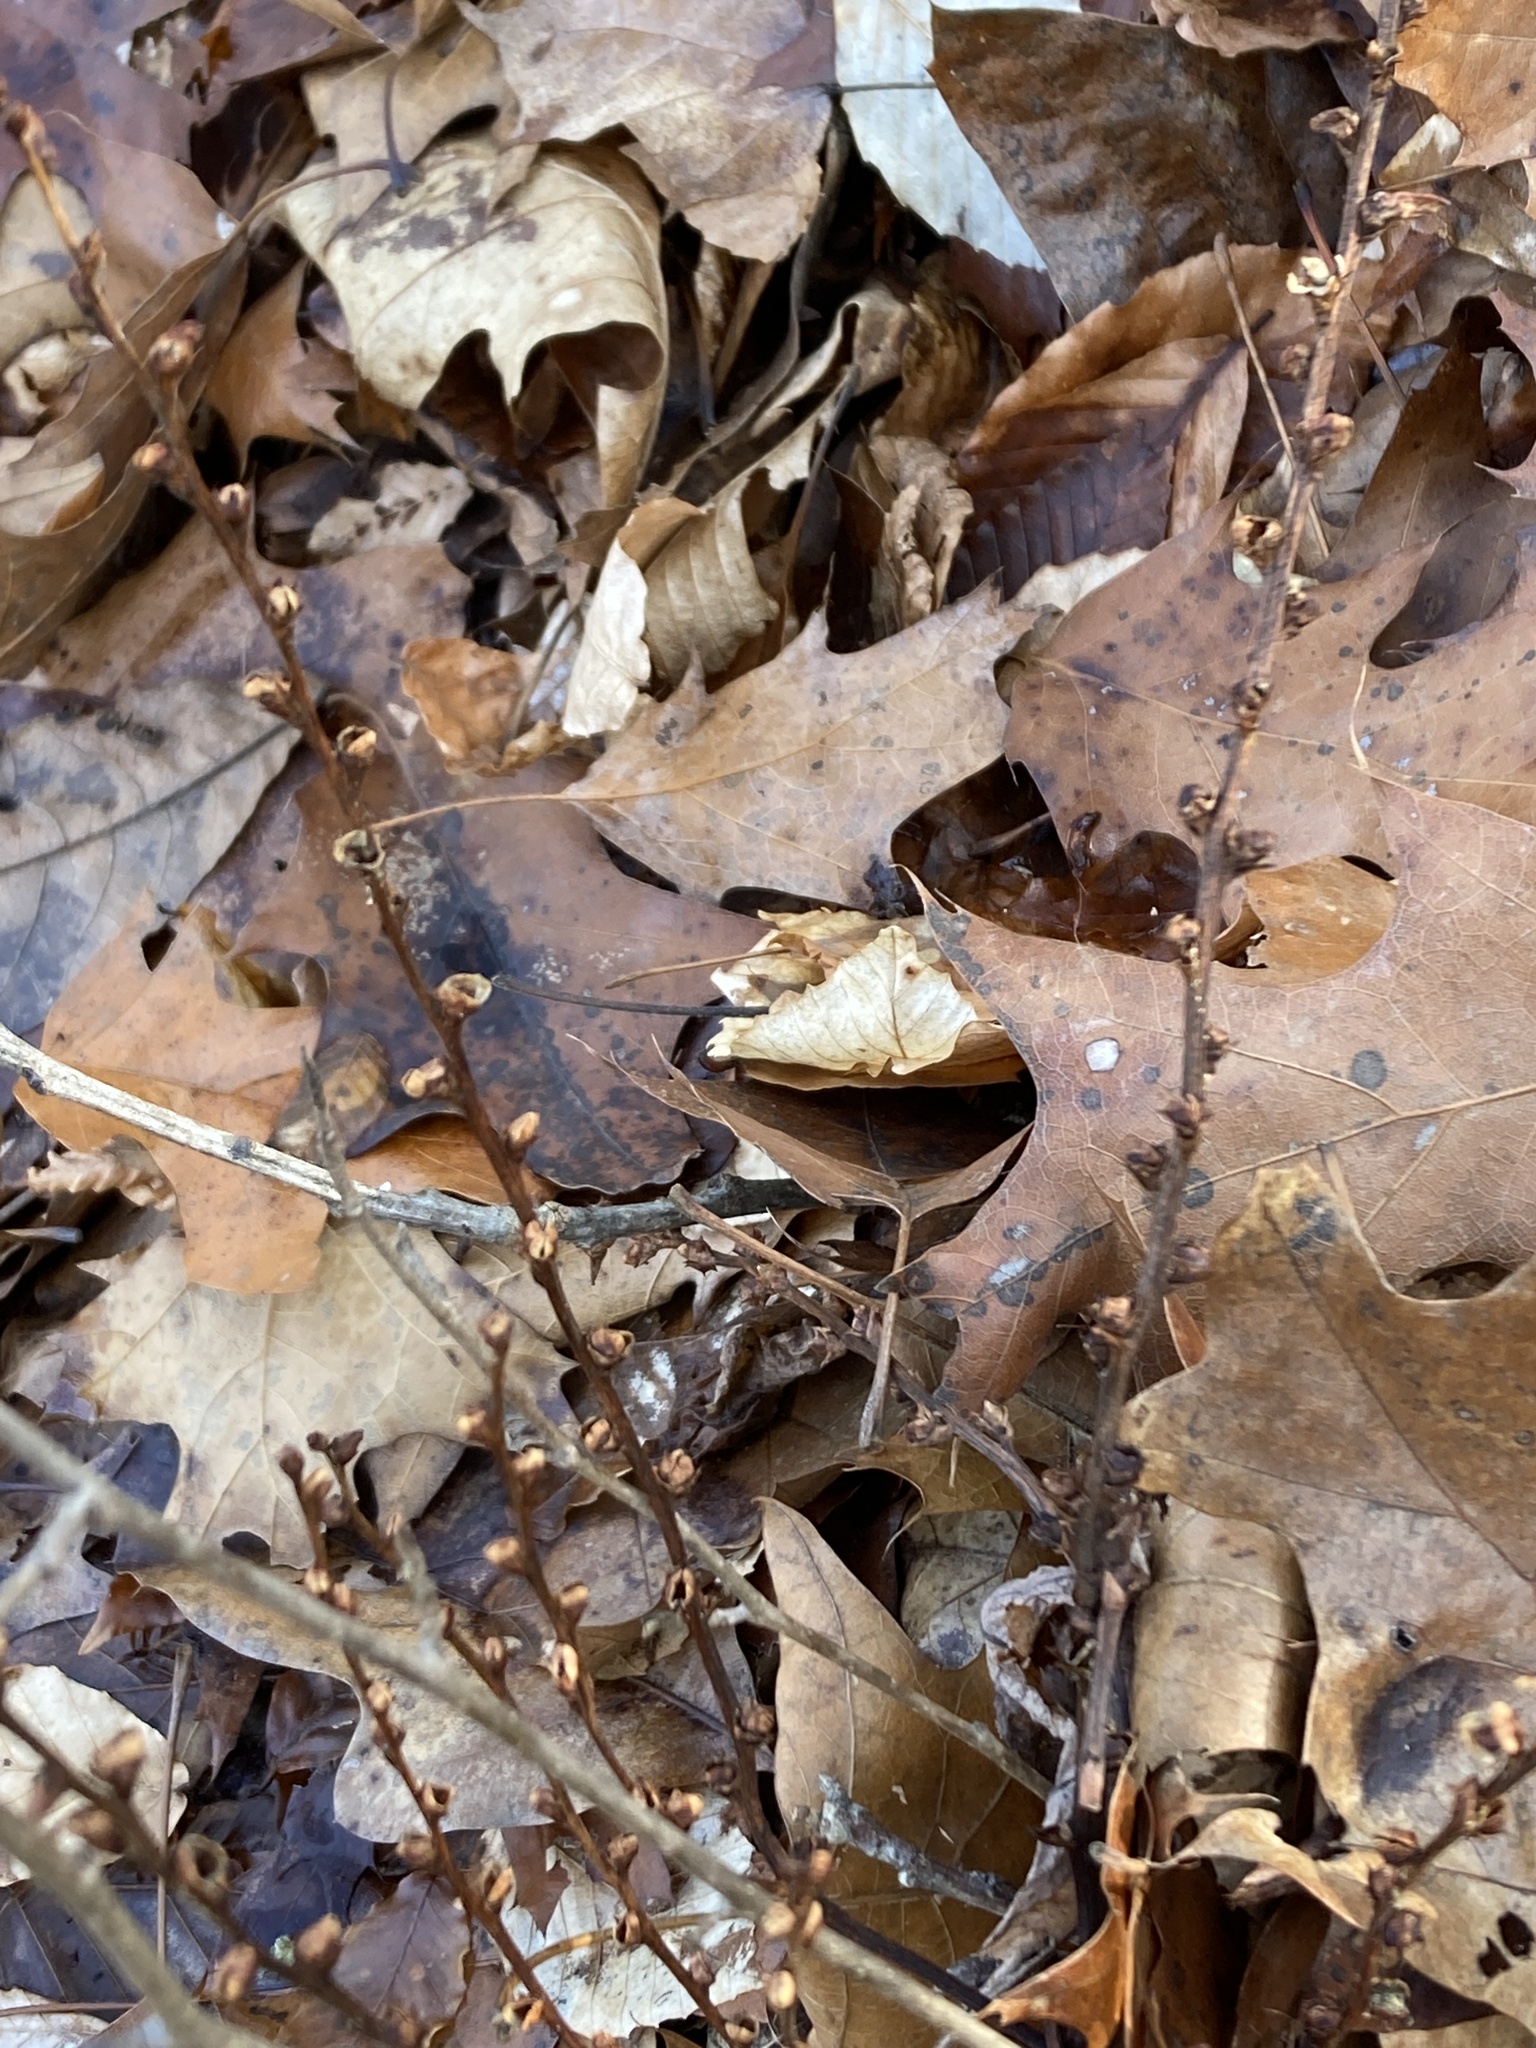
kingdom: Plantae
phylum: Tracheophyta
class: Magnoliopsida
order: Lamiales
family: Orobanchaceae
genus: Epifagus
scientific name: Epifagus virginiana
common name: Beechdrops
